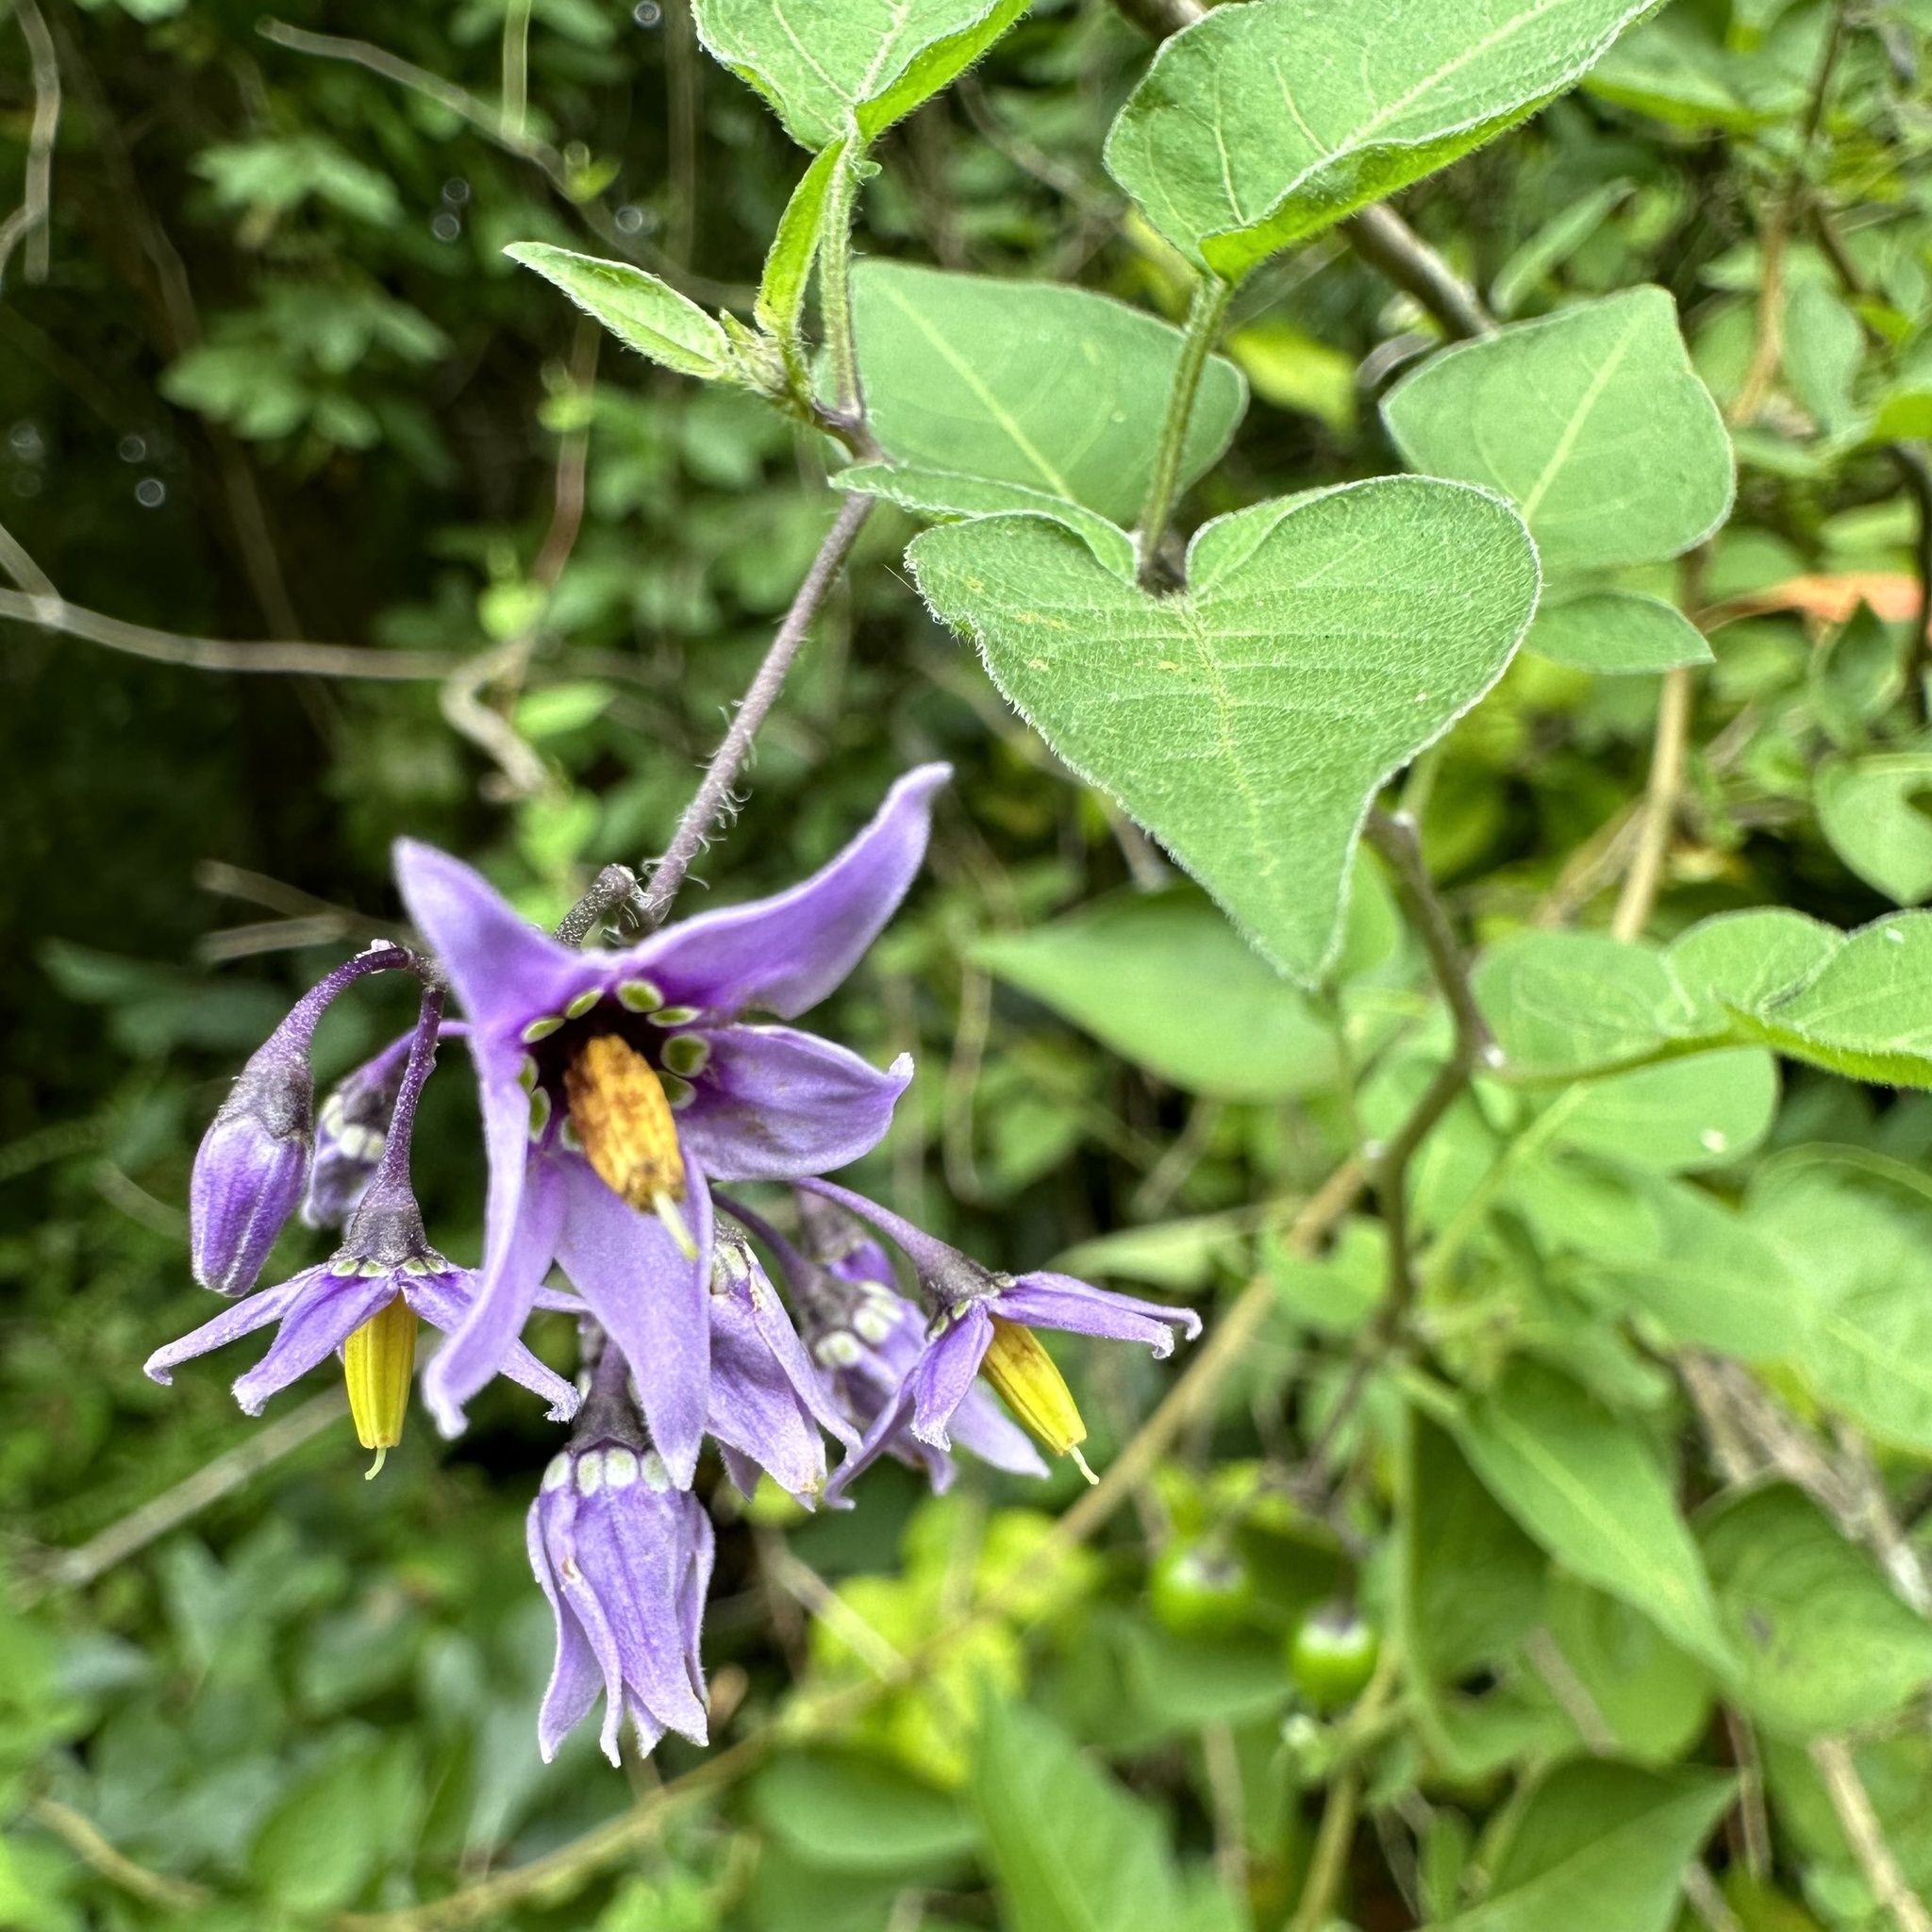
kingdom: Plantae
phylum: Tracheophyta
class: Magnoliopsida
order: Solanales
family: Solanaceae
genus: Solanum
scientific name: Solanum dulcamara
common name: Climbing nightshade
